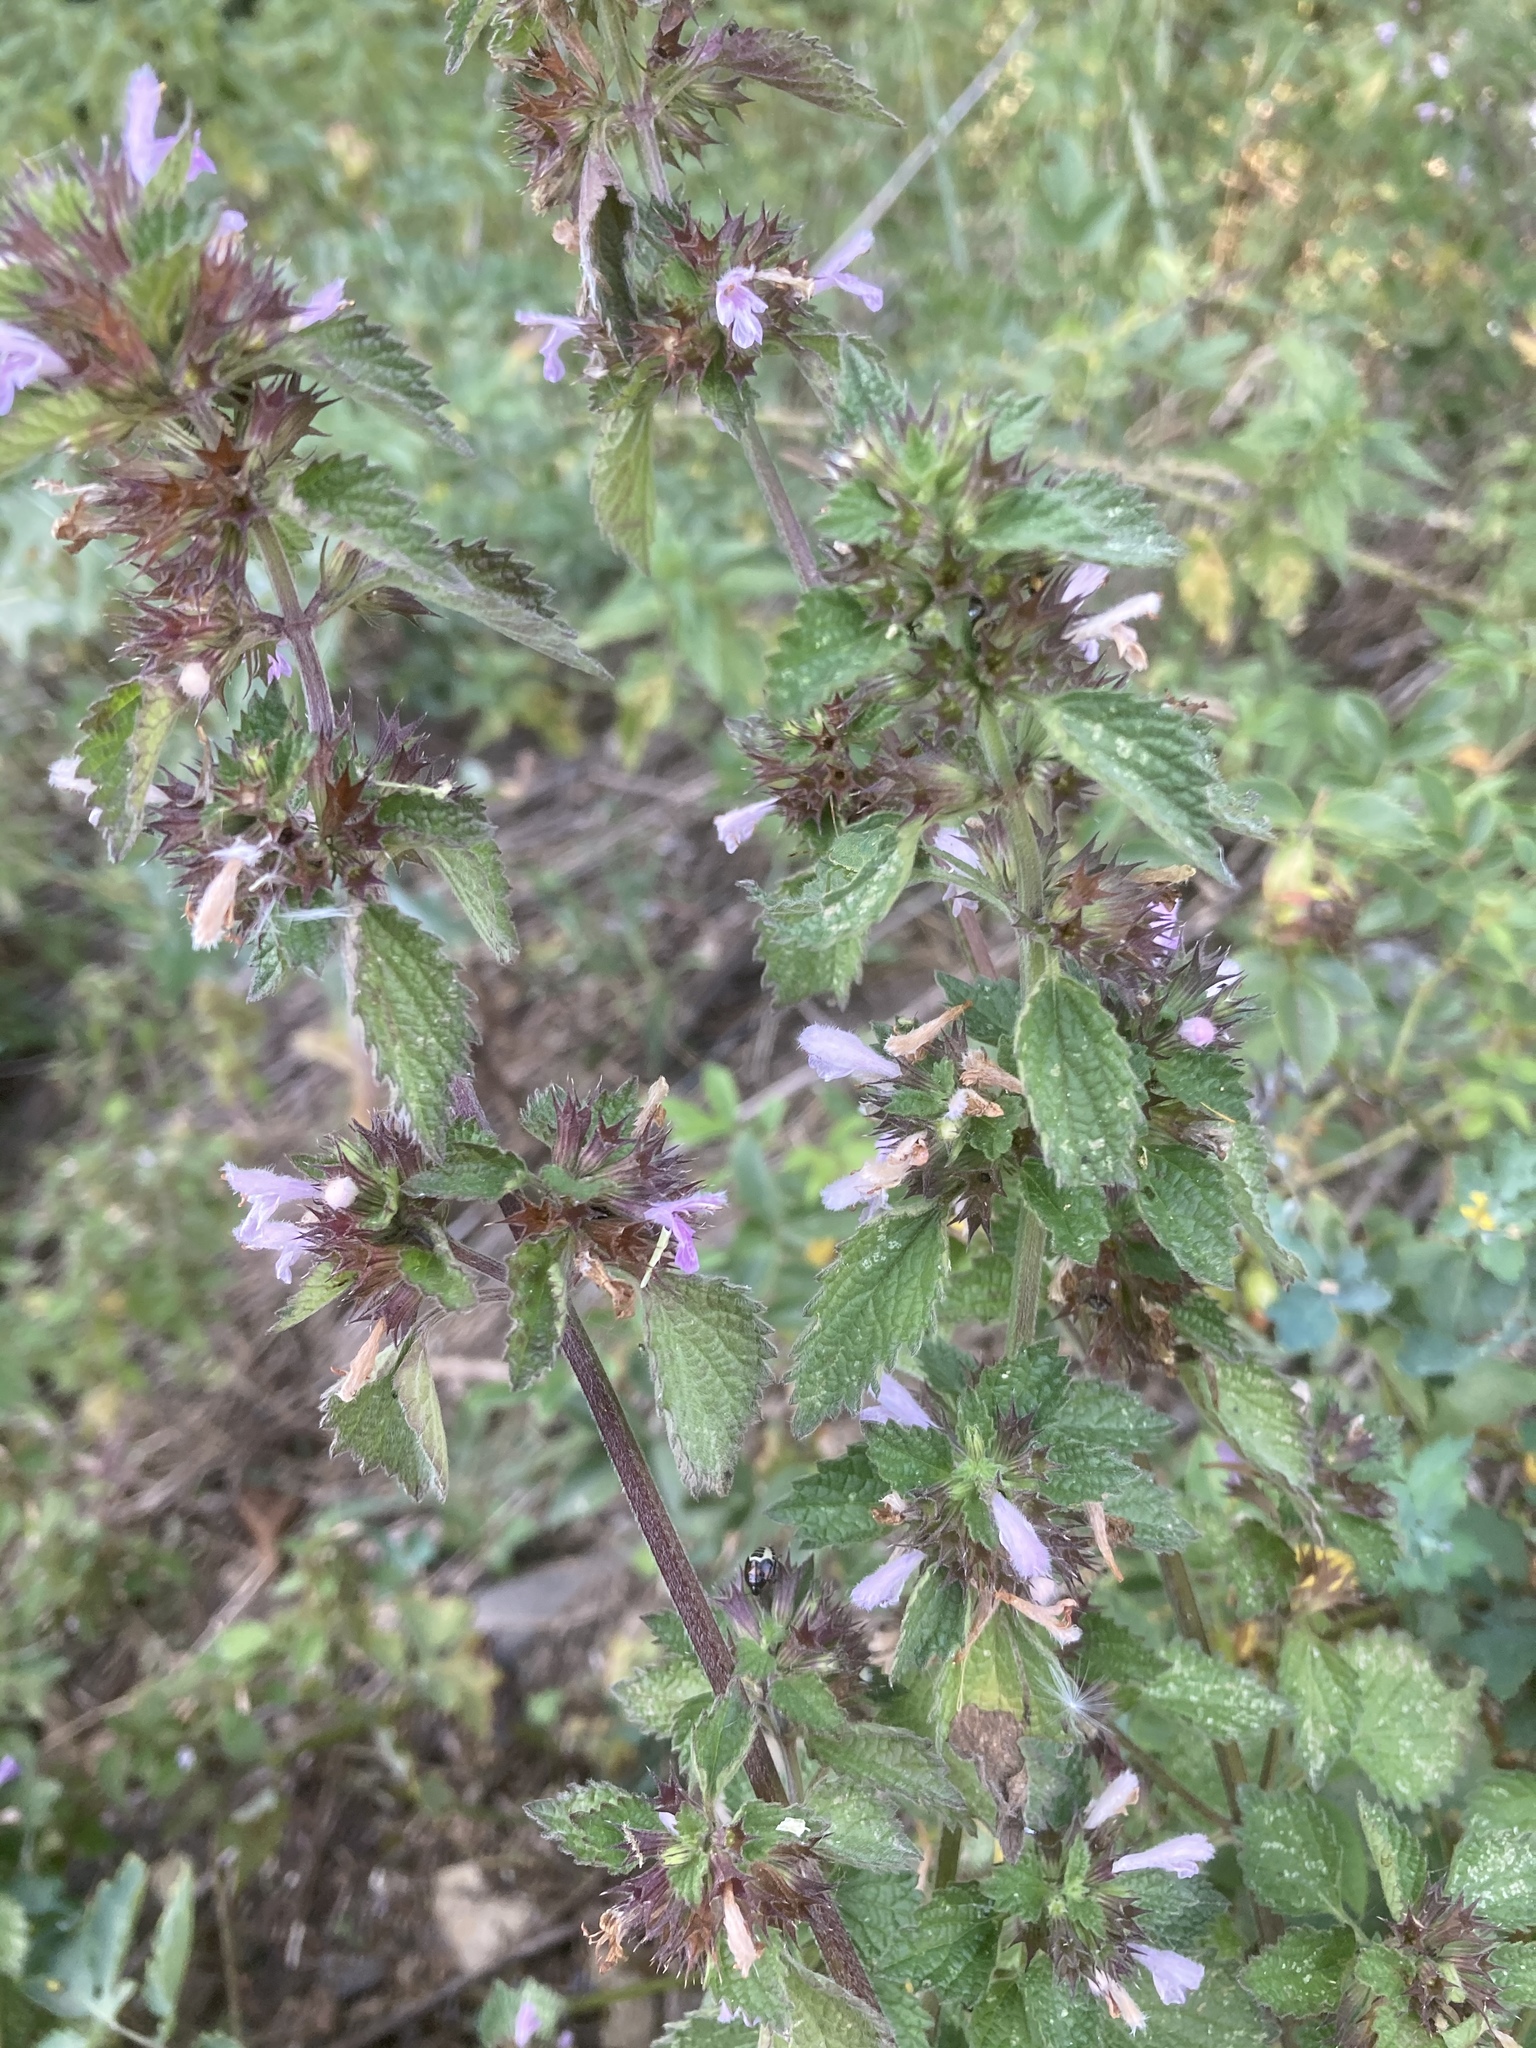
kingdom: Plantae
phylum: Tracheophyta
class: Magnoliopsida
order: Lamiales
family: Lamiaceae
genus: Ballota
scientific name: Ballota nigra
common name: Black horehound
